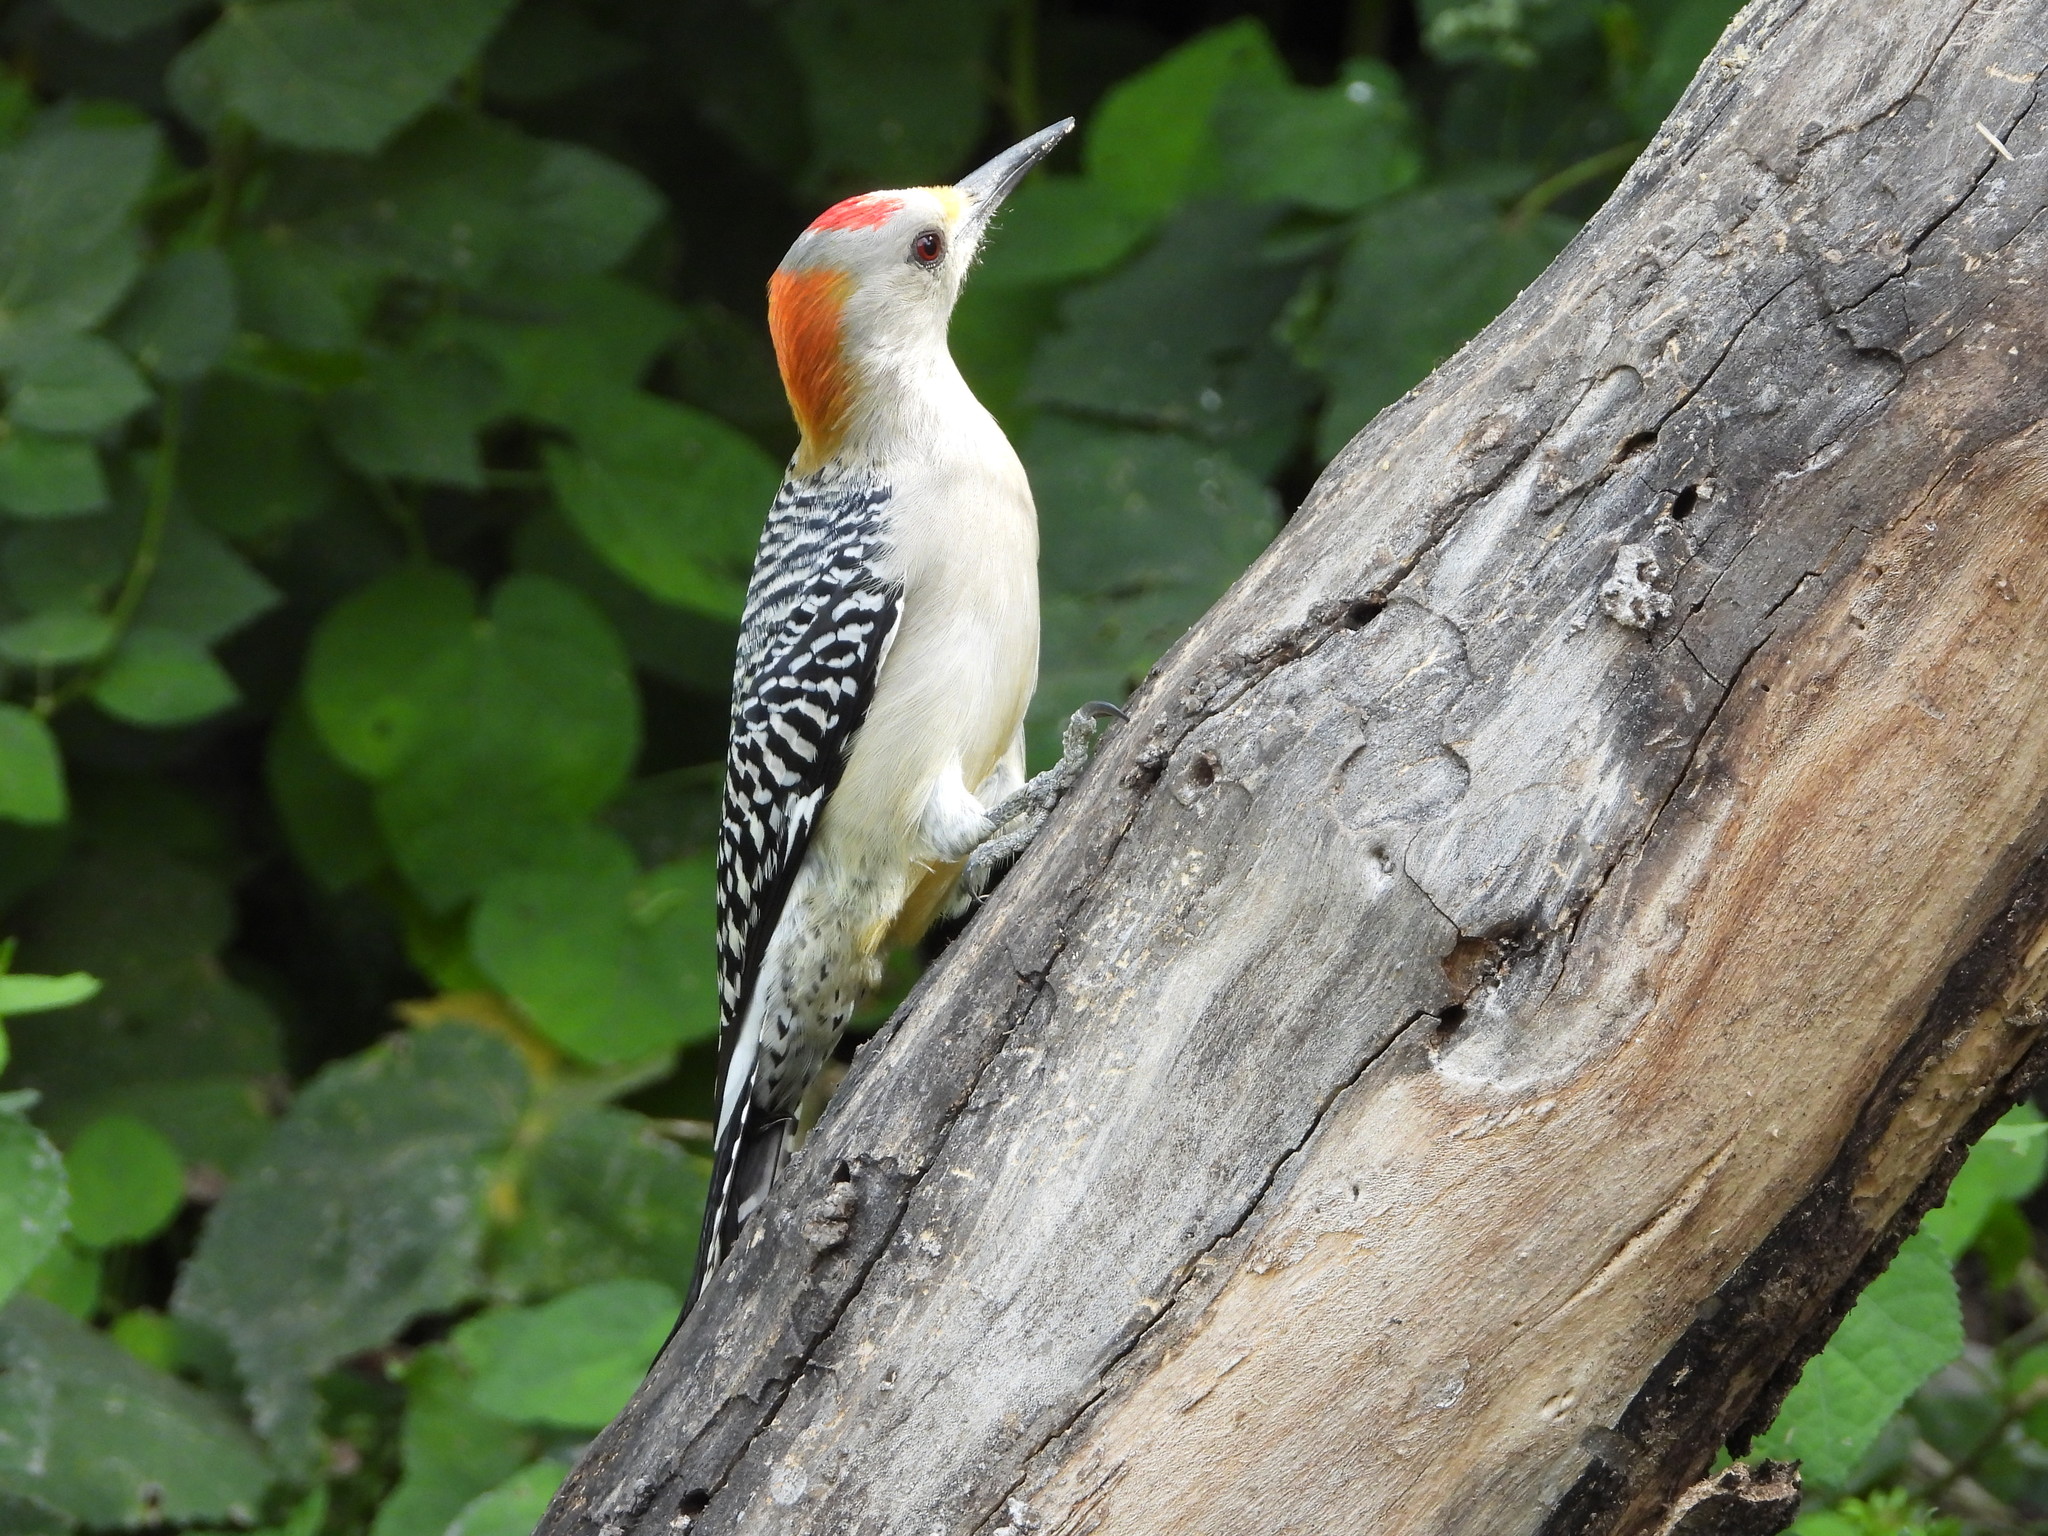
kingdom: Animalia
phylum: Chordata
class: Aves
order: Piciformes
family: Picidae
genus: Melanerpes
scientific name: Melanerpes aurifrons
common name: Golden-fronted woodpecker
